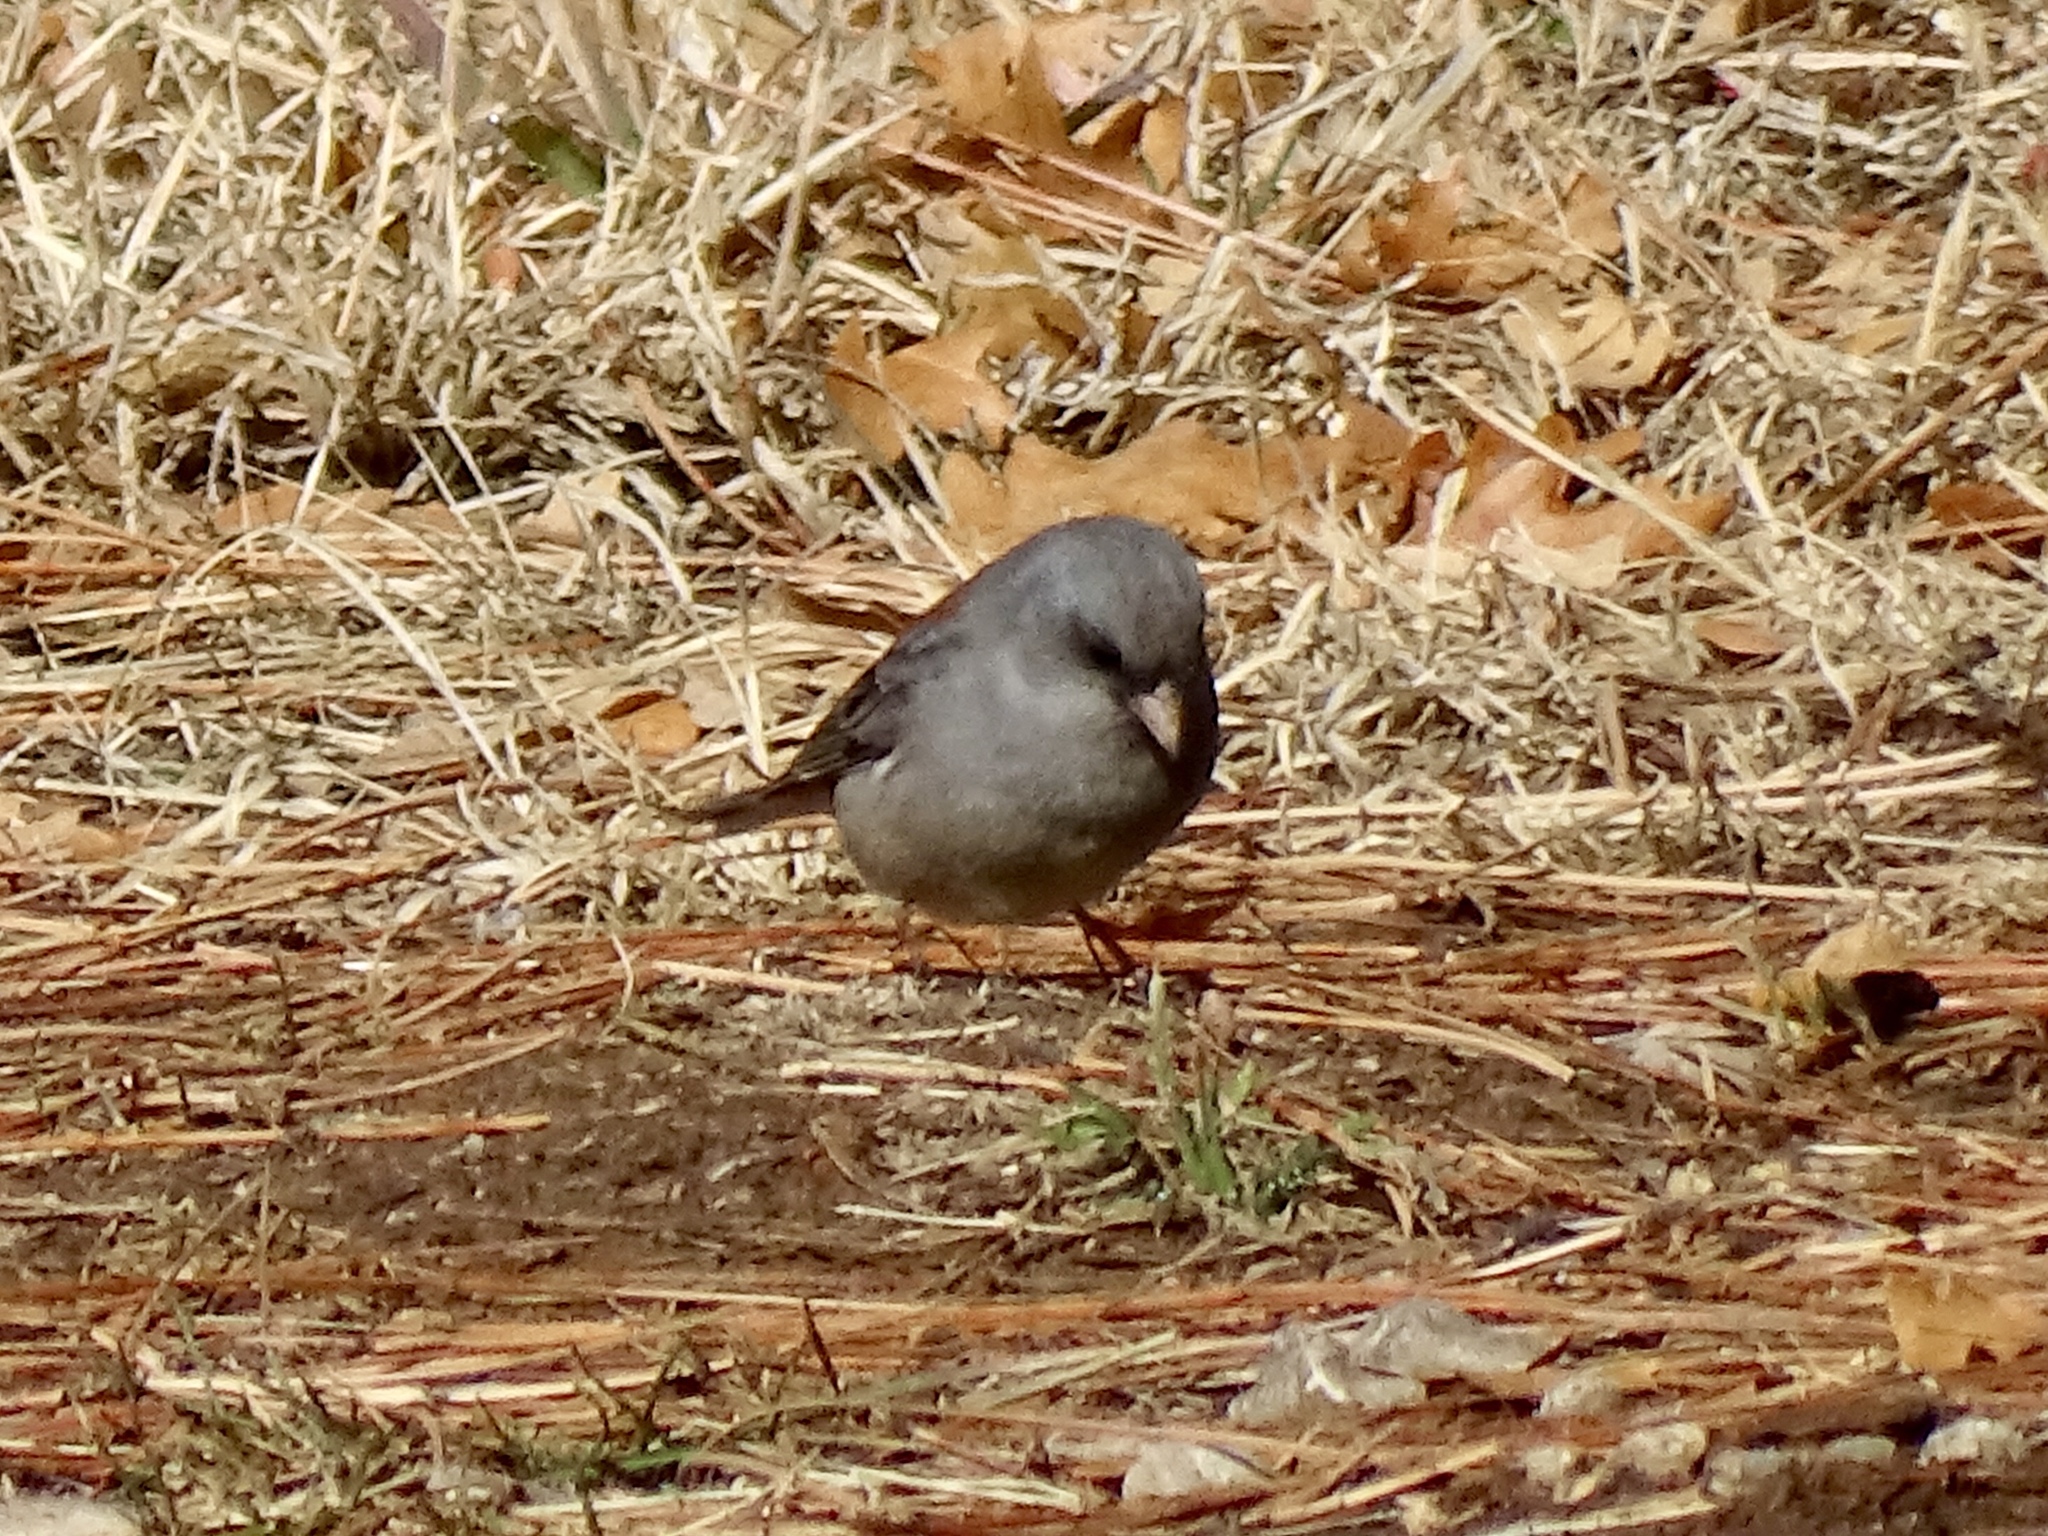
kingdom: Animalia
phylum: Chordata
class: Aves
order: Passeriformes
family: Passerellidae
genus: Junco
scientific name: Junco hyemalis
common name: Dark-eyed junco
